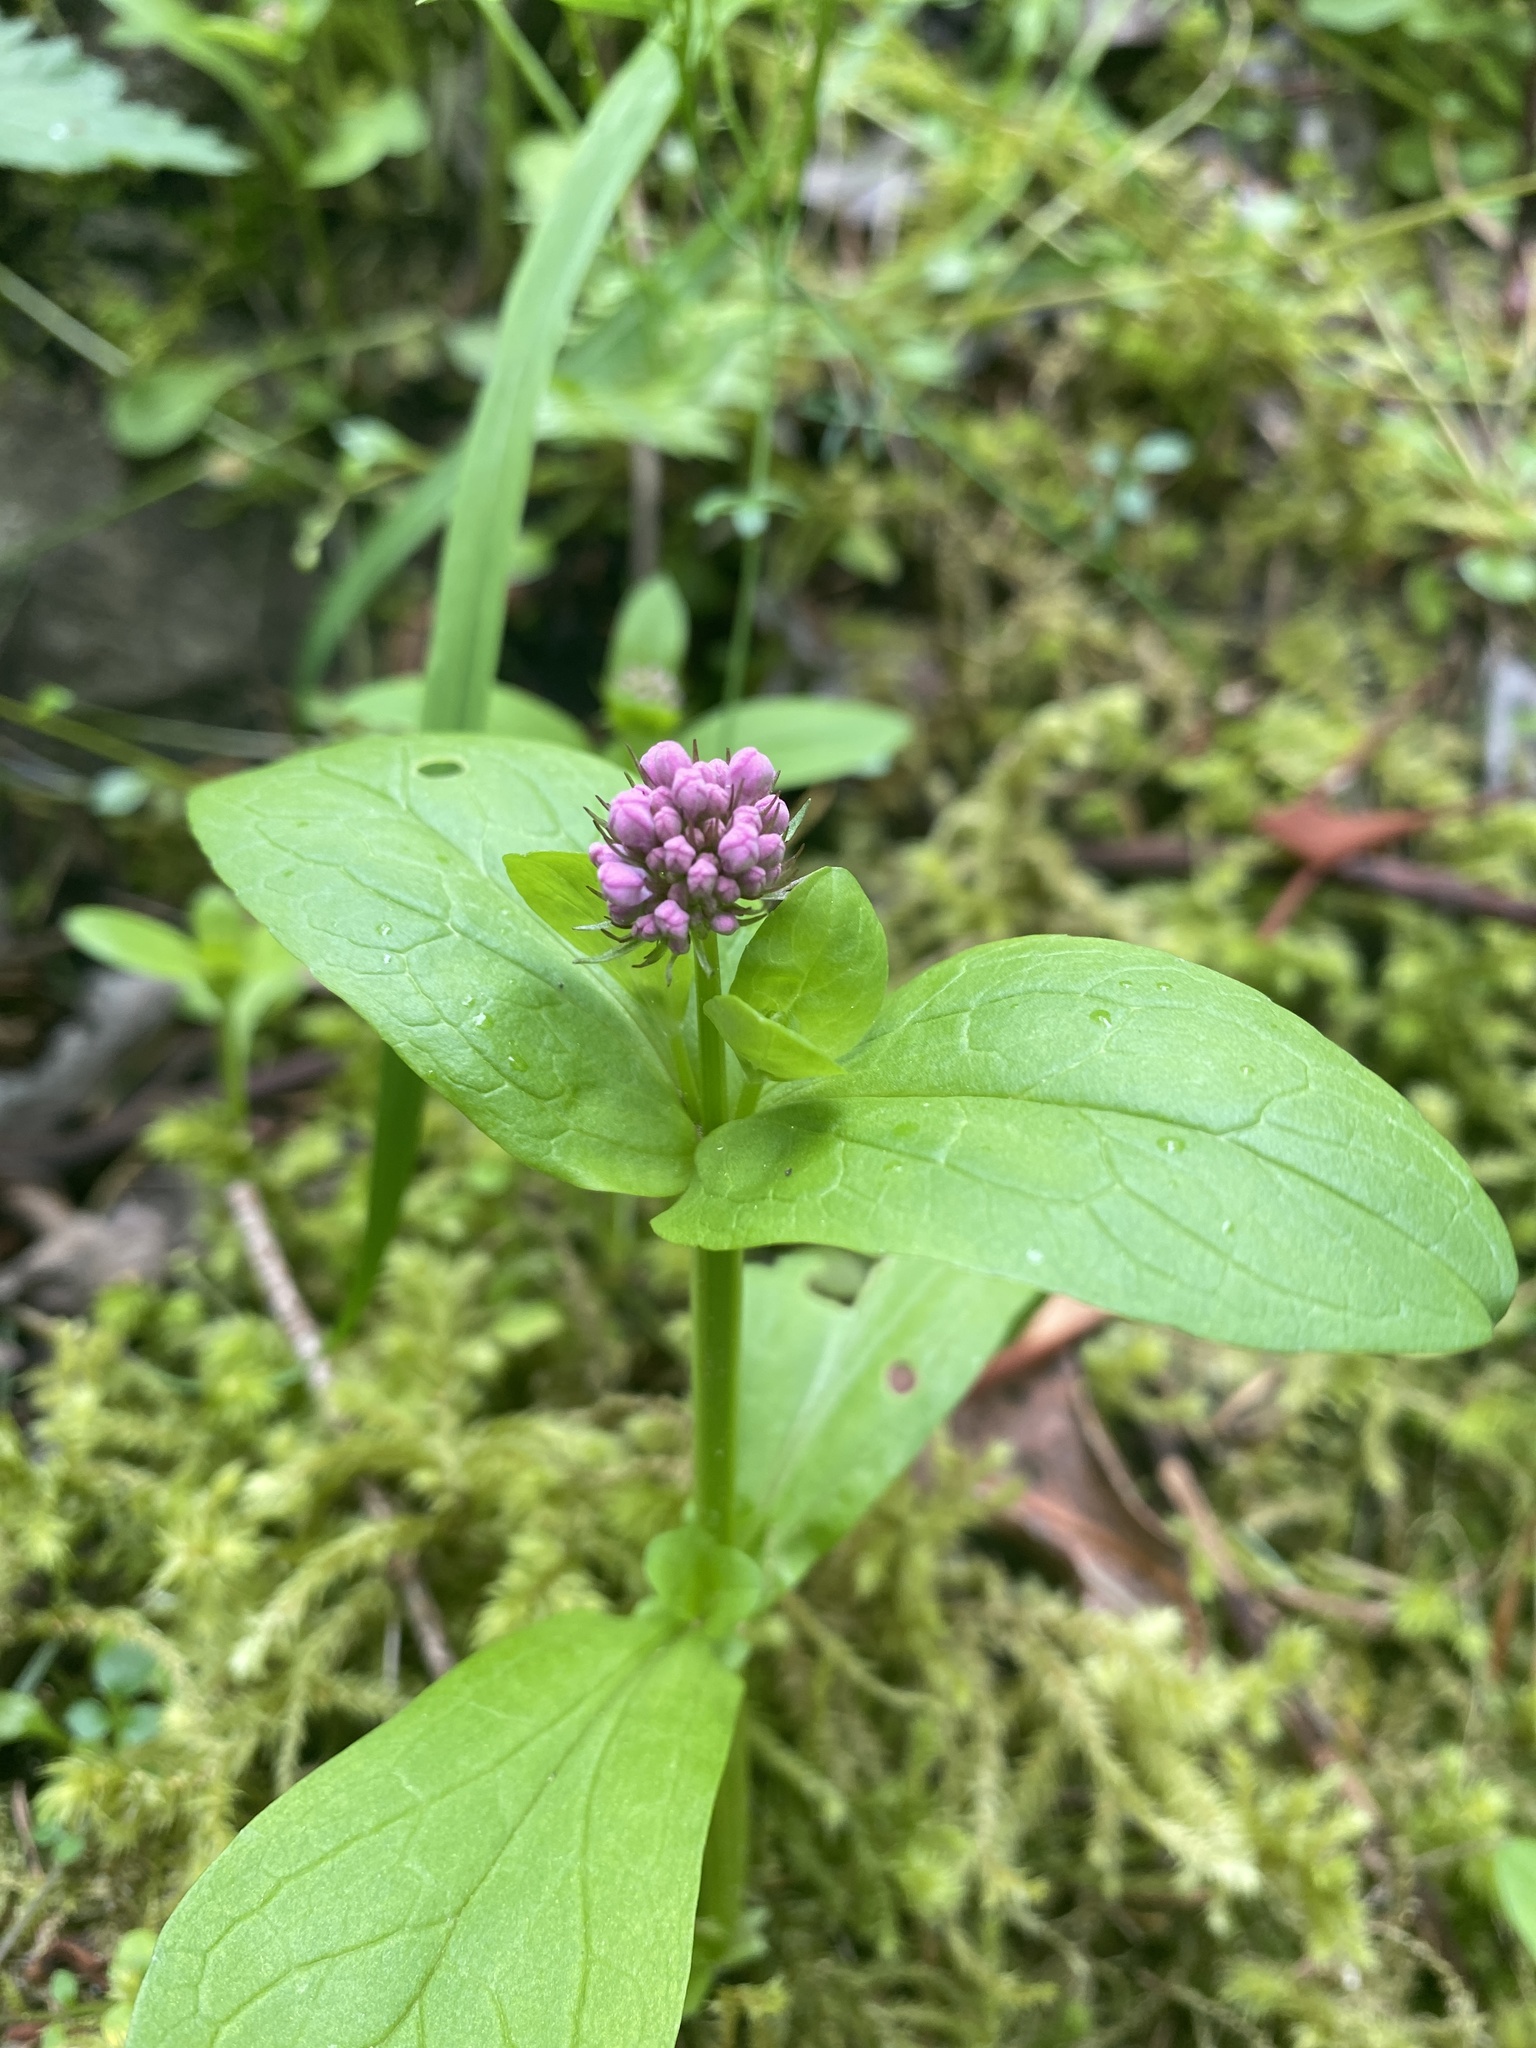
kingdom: Plantae
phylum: Tracheophyta
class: Magnoliopsida
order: Dipsacales
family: Caprifoliaceae
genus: Plectritis
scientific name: Plectritis congesta
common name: Pink plectritis
